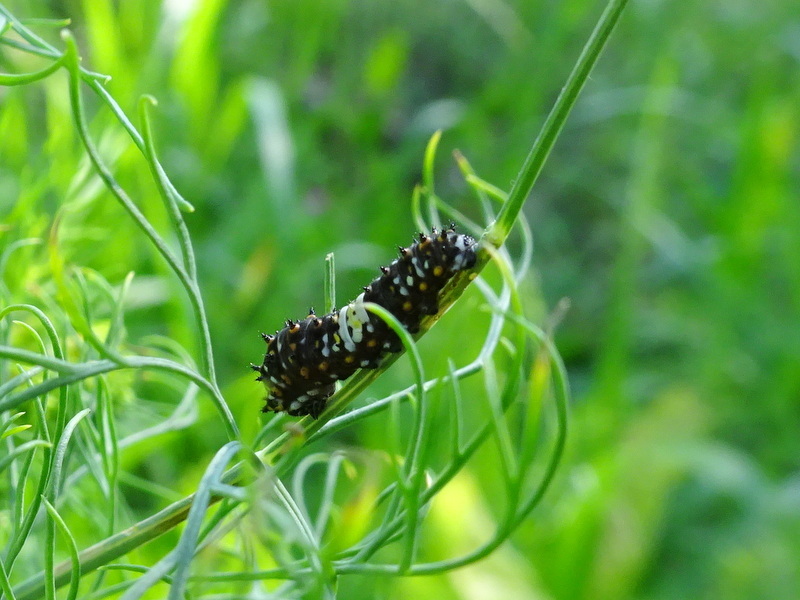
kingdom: Animalia
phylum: Arthropoda
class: Insecta
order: Lepidoptera
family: Papilionidae
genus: Papilio
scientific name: Papilio polyxenes
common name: Black swallowtail
